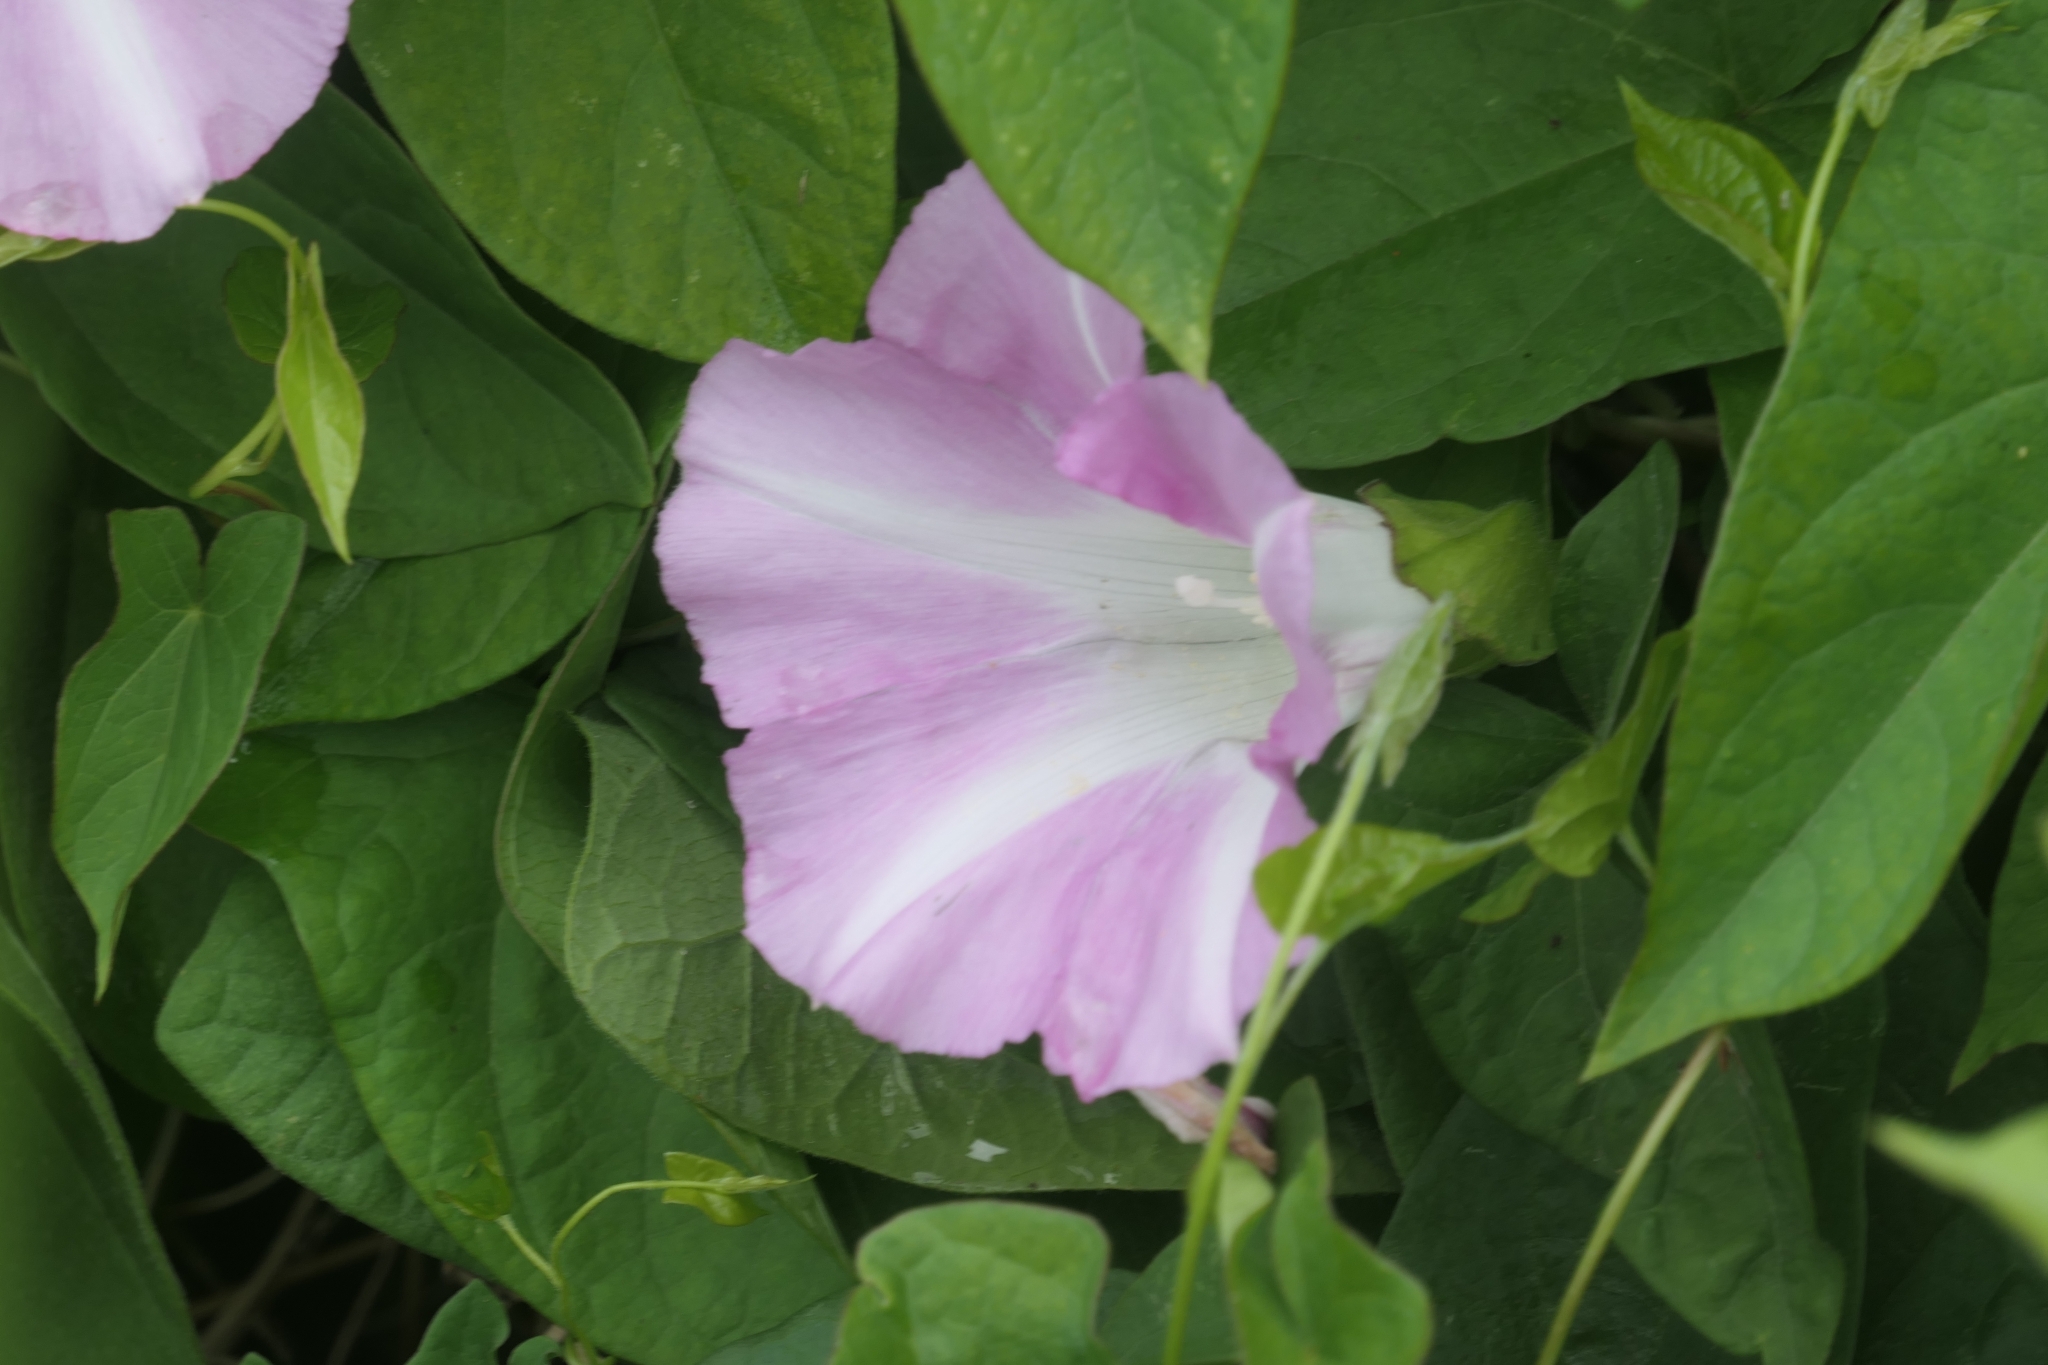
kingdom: Plantae
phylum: Tracheophyta
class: Magnoliopsida
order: Solanales
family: Convolvulaceae
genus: Calystegia
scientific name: Calystegia sepium
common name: Hedge bindweed
